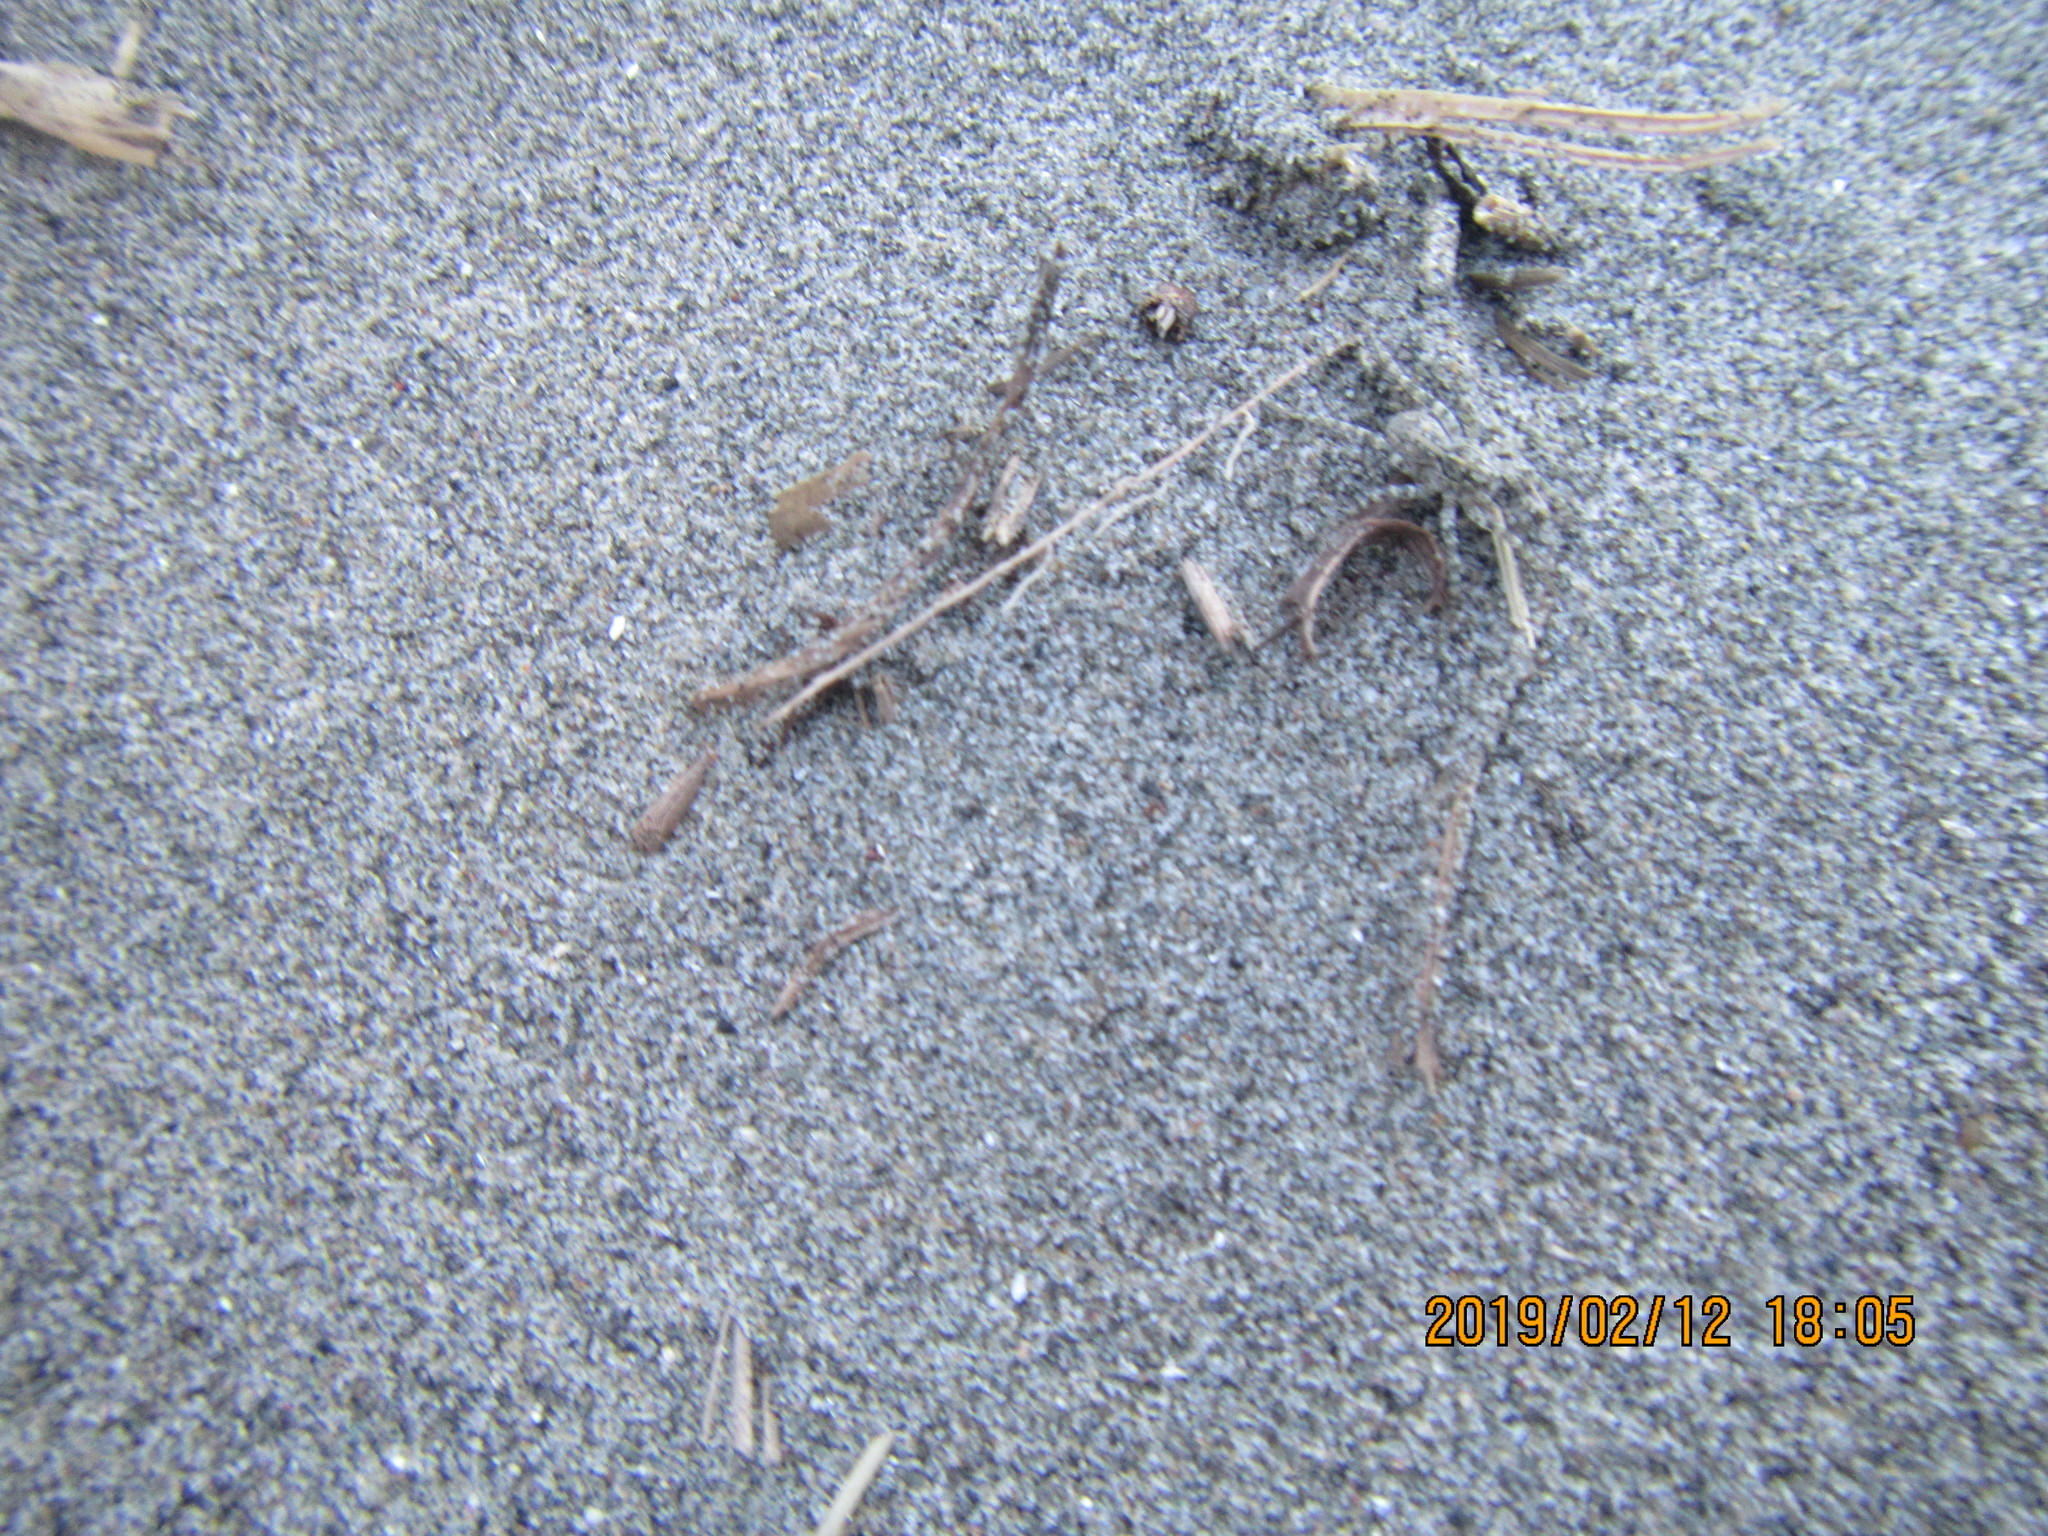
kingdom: Plantae
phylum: Tracheophyta
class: Liliopsida
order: Poales
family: Juncaceae
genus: Juncus
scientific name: Juncus bufonius
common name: Toad rush
